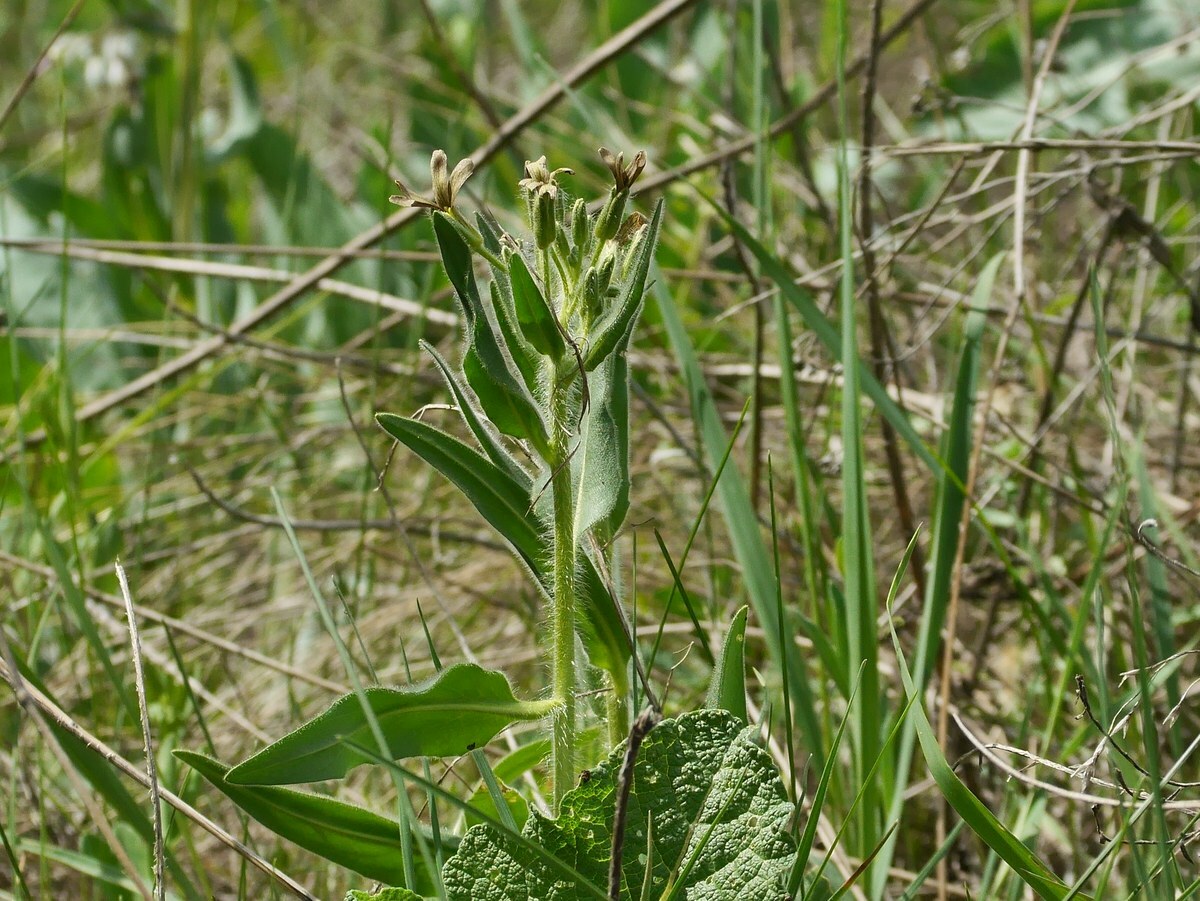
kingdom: Plantae
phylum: Tracheophyta
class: Magnoliopsida
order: Brassicales
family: Brassicaceae
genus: Hesperis
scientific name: Hesperis tristis
